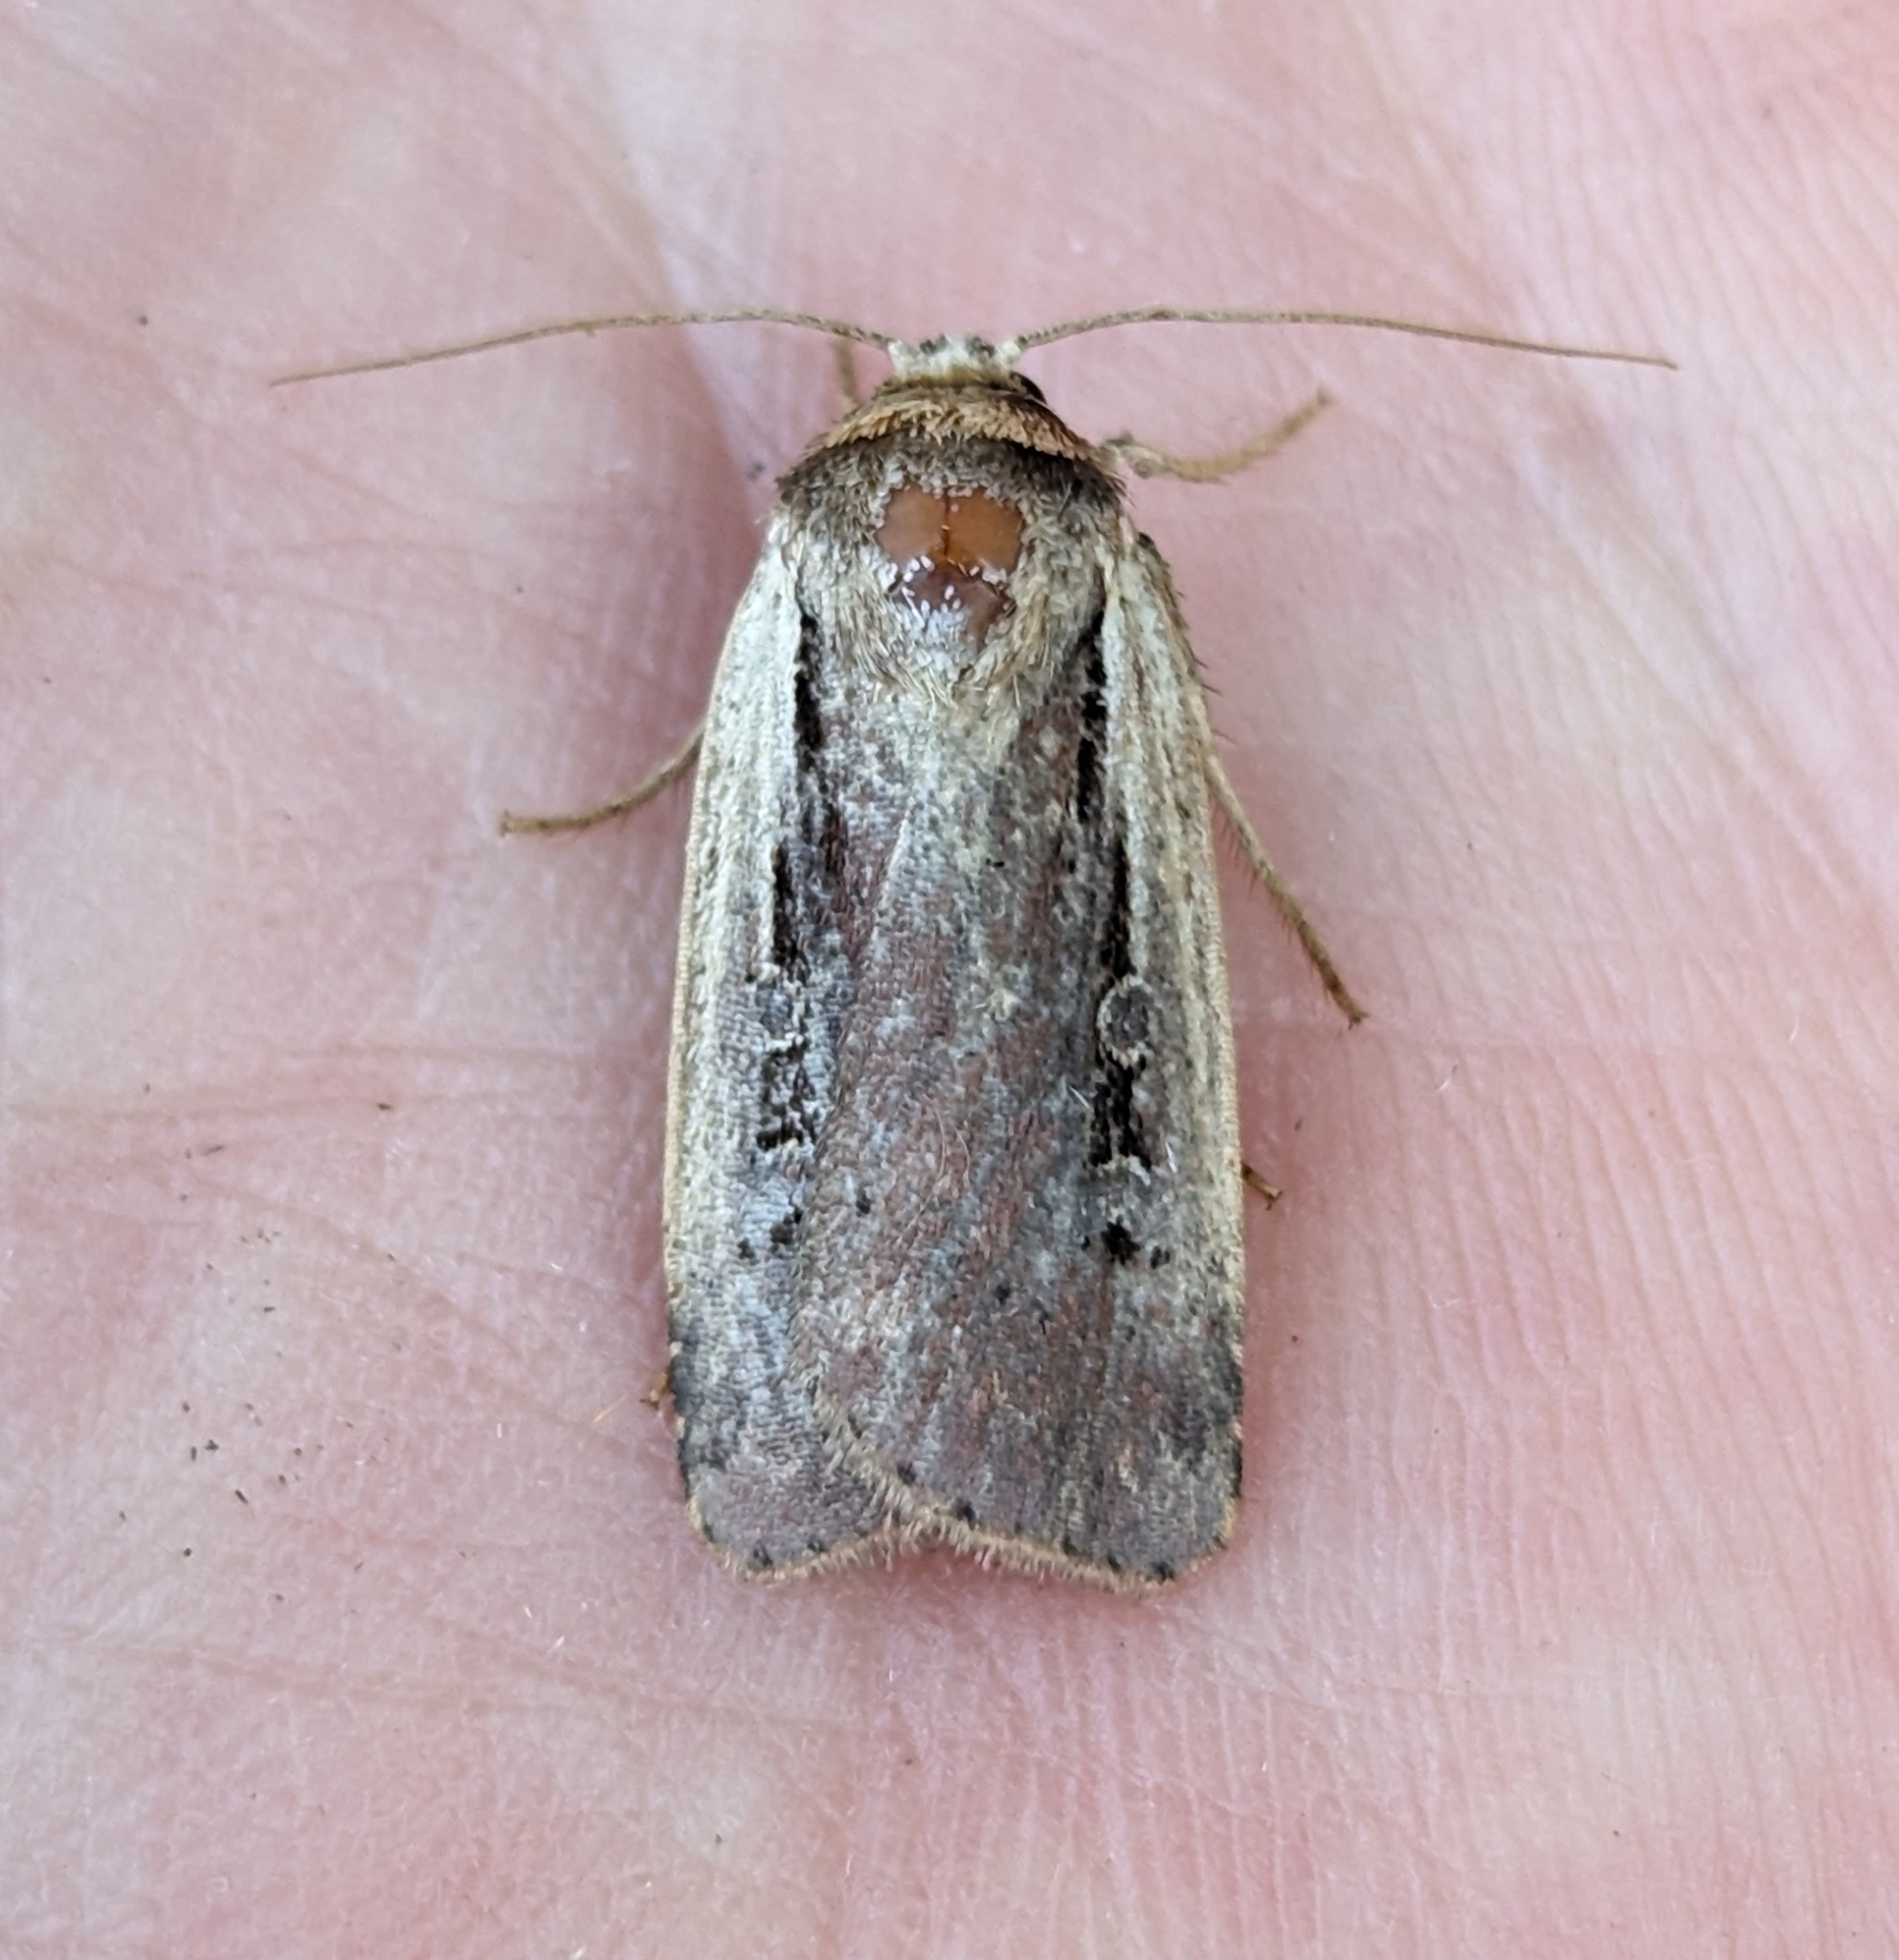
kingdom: Animalia
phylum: Arthropoda
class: Insecta
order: Lepidoptera
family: Noctuidae
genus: Ochropleura
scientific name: Ochropleura implecta
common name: Flame-shouldered dart
